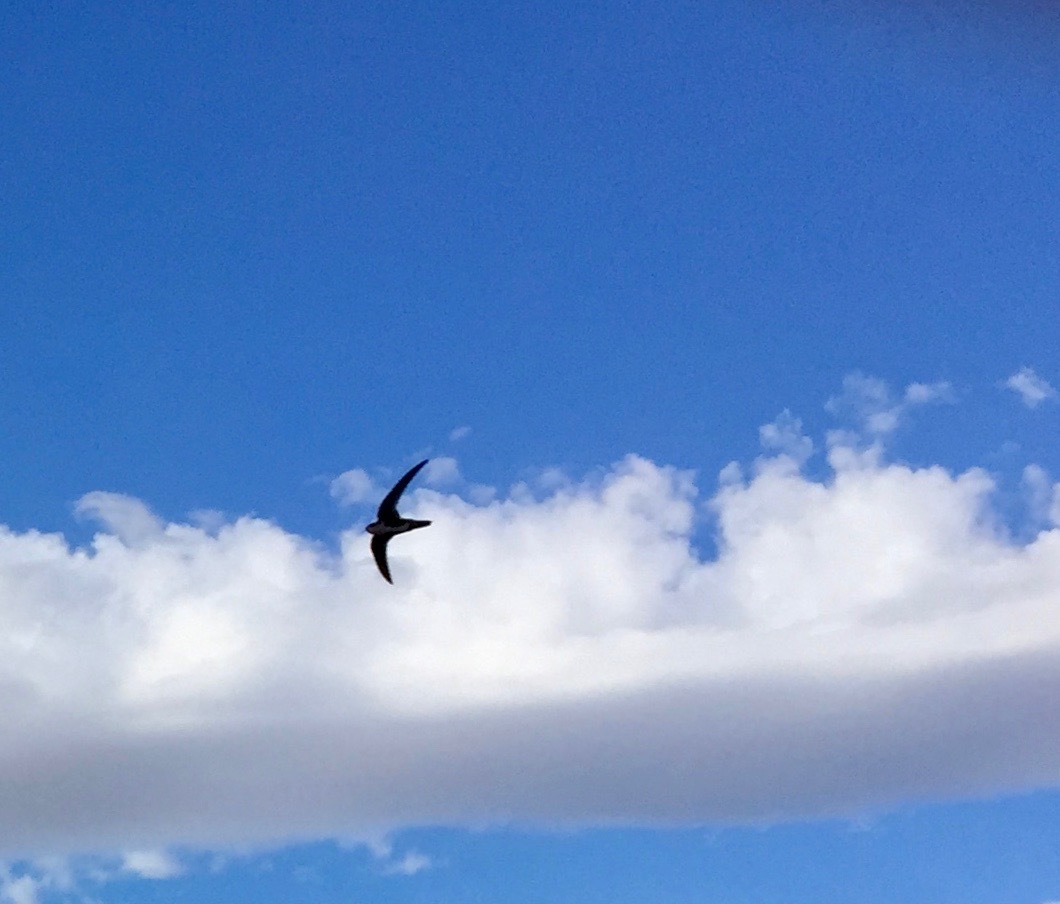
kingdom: Animalia
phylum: Chordata
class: Aves
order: Apodiformes
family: Apodidae
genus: Aeronautes
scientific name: Aeronautes saxatalis
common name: White-throated swift
